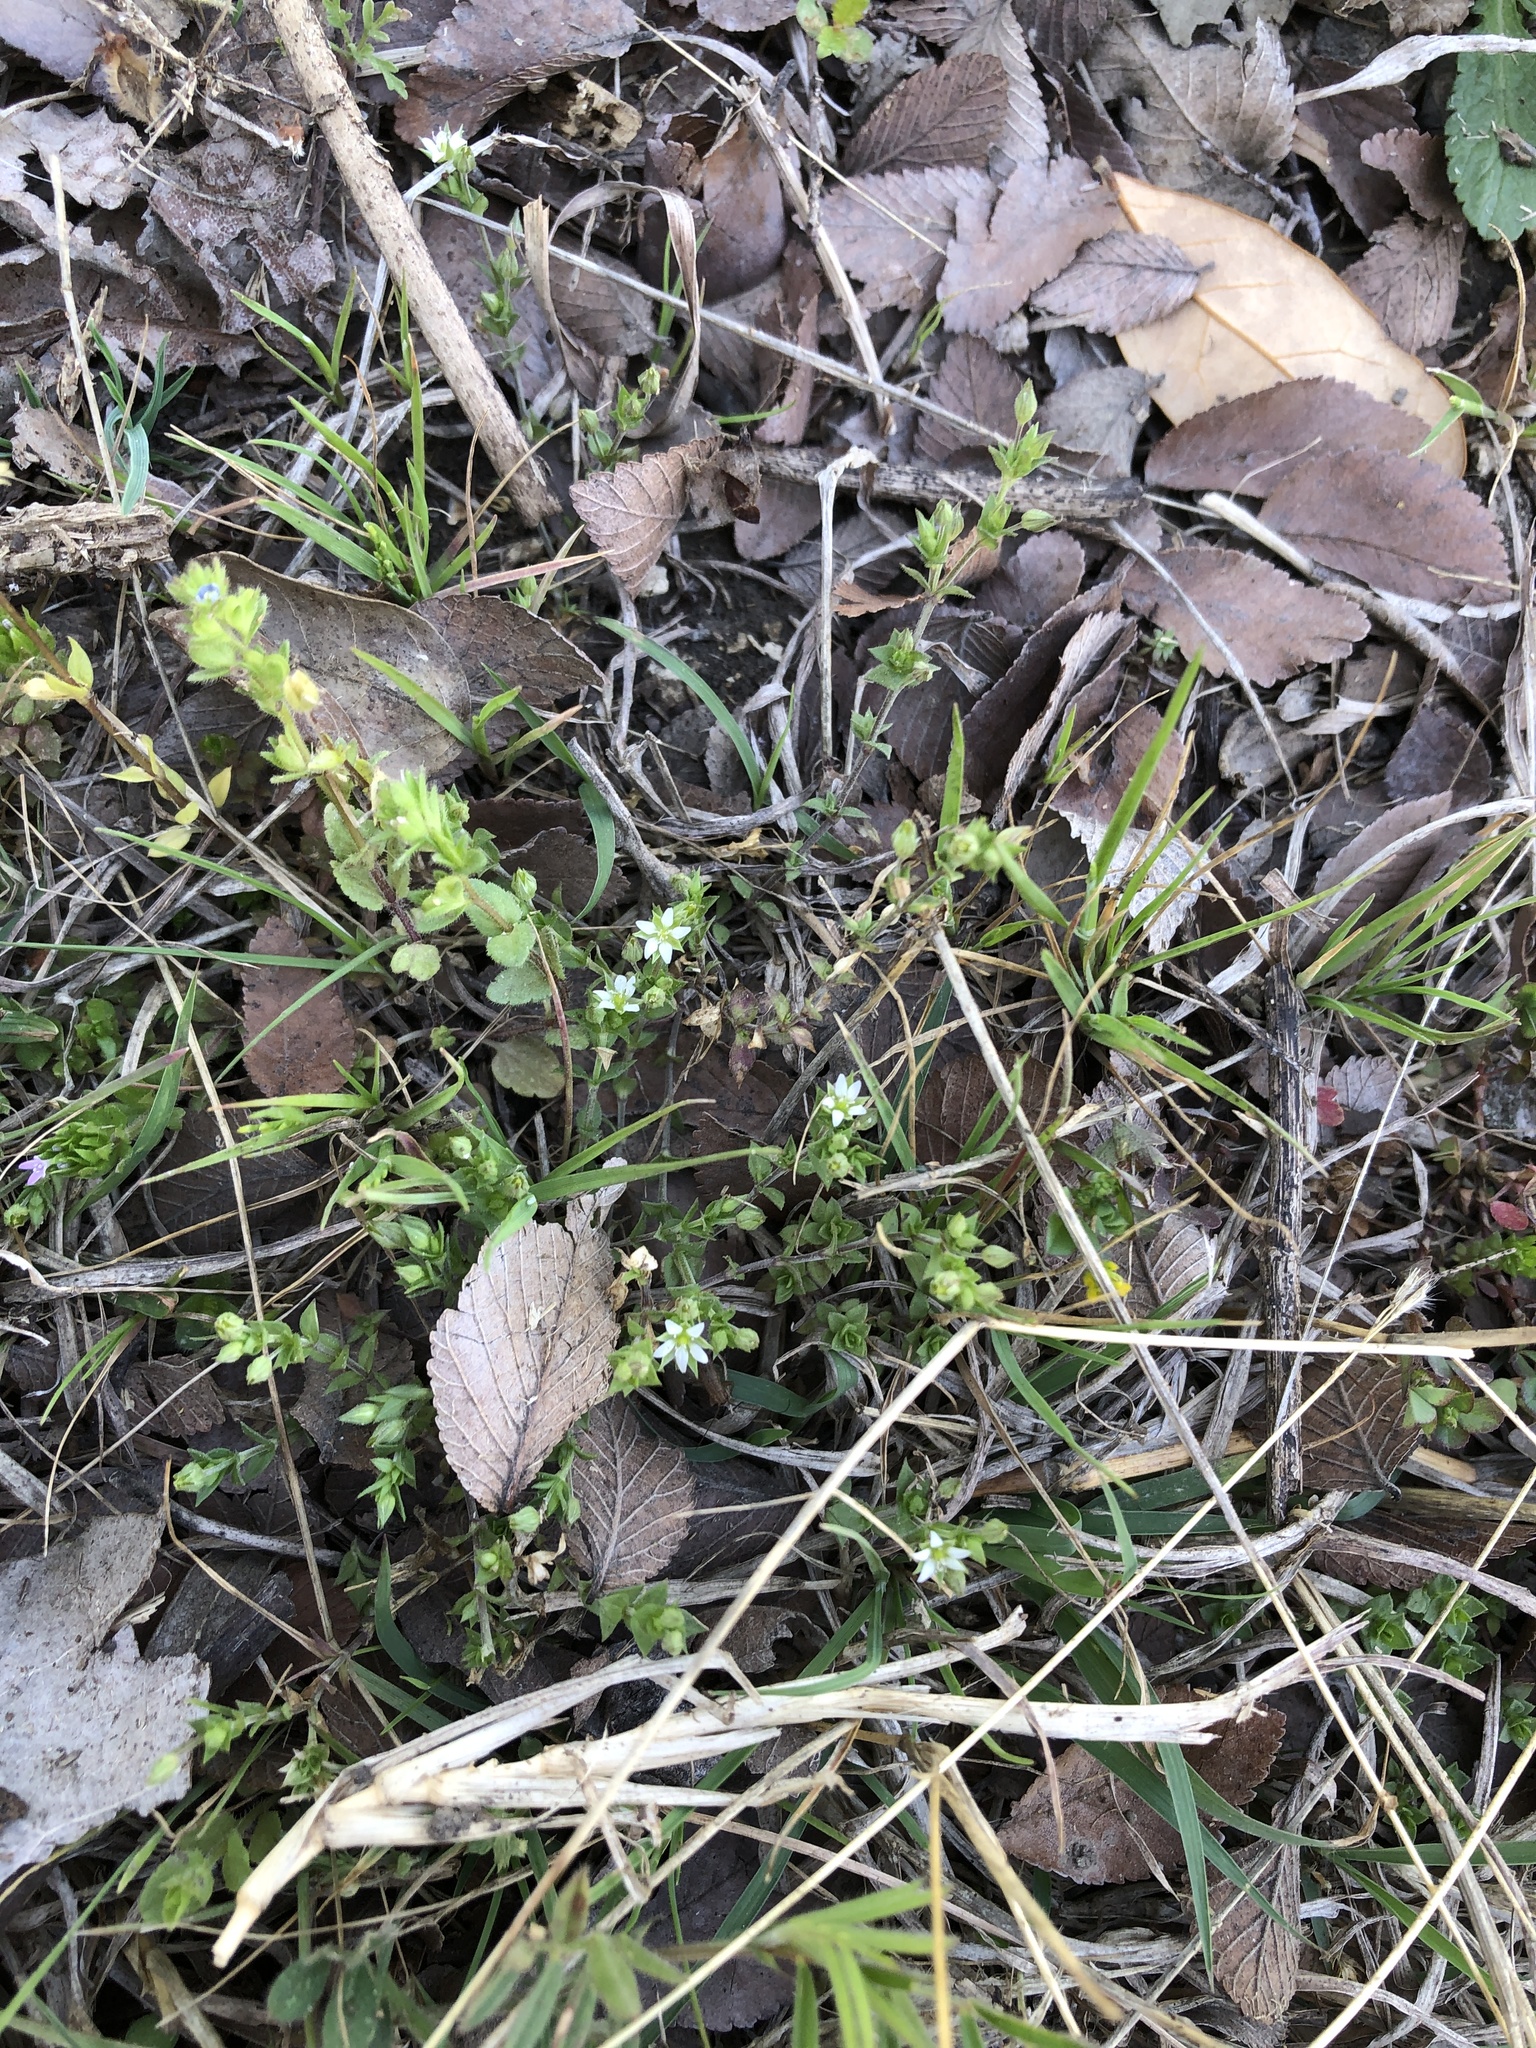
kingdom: Plantae
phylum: Tracheophyta
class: Magnoliopsida
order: Caryophyllales
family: Caryophyllaceae
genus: Arenaria
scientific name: Arenaria serpyllifolia
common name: Thyme-leaved sandwort
